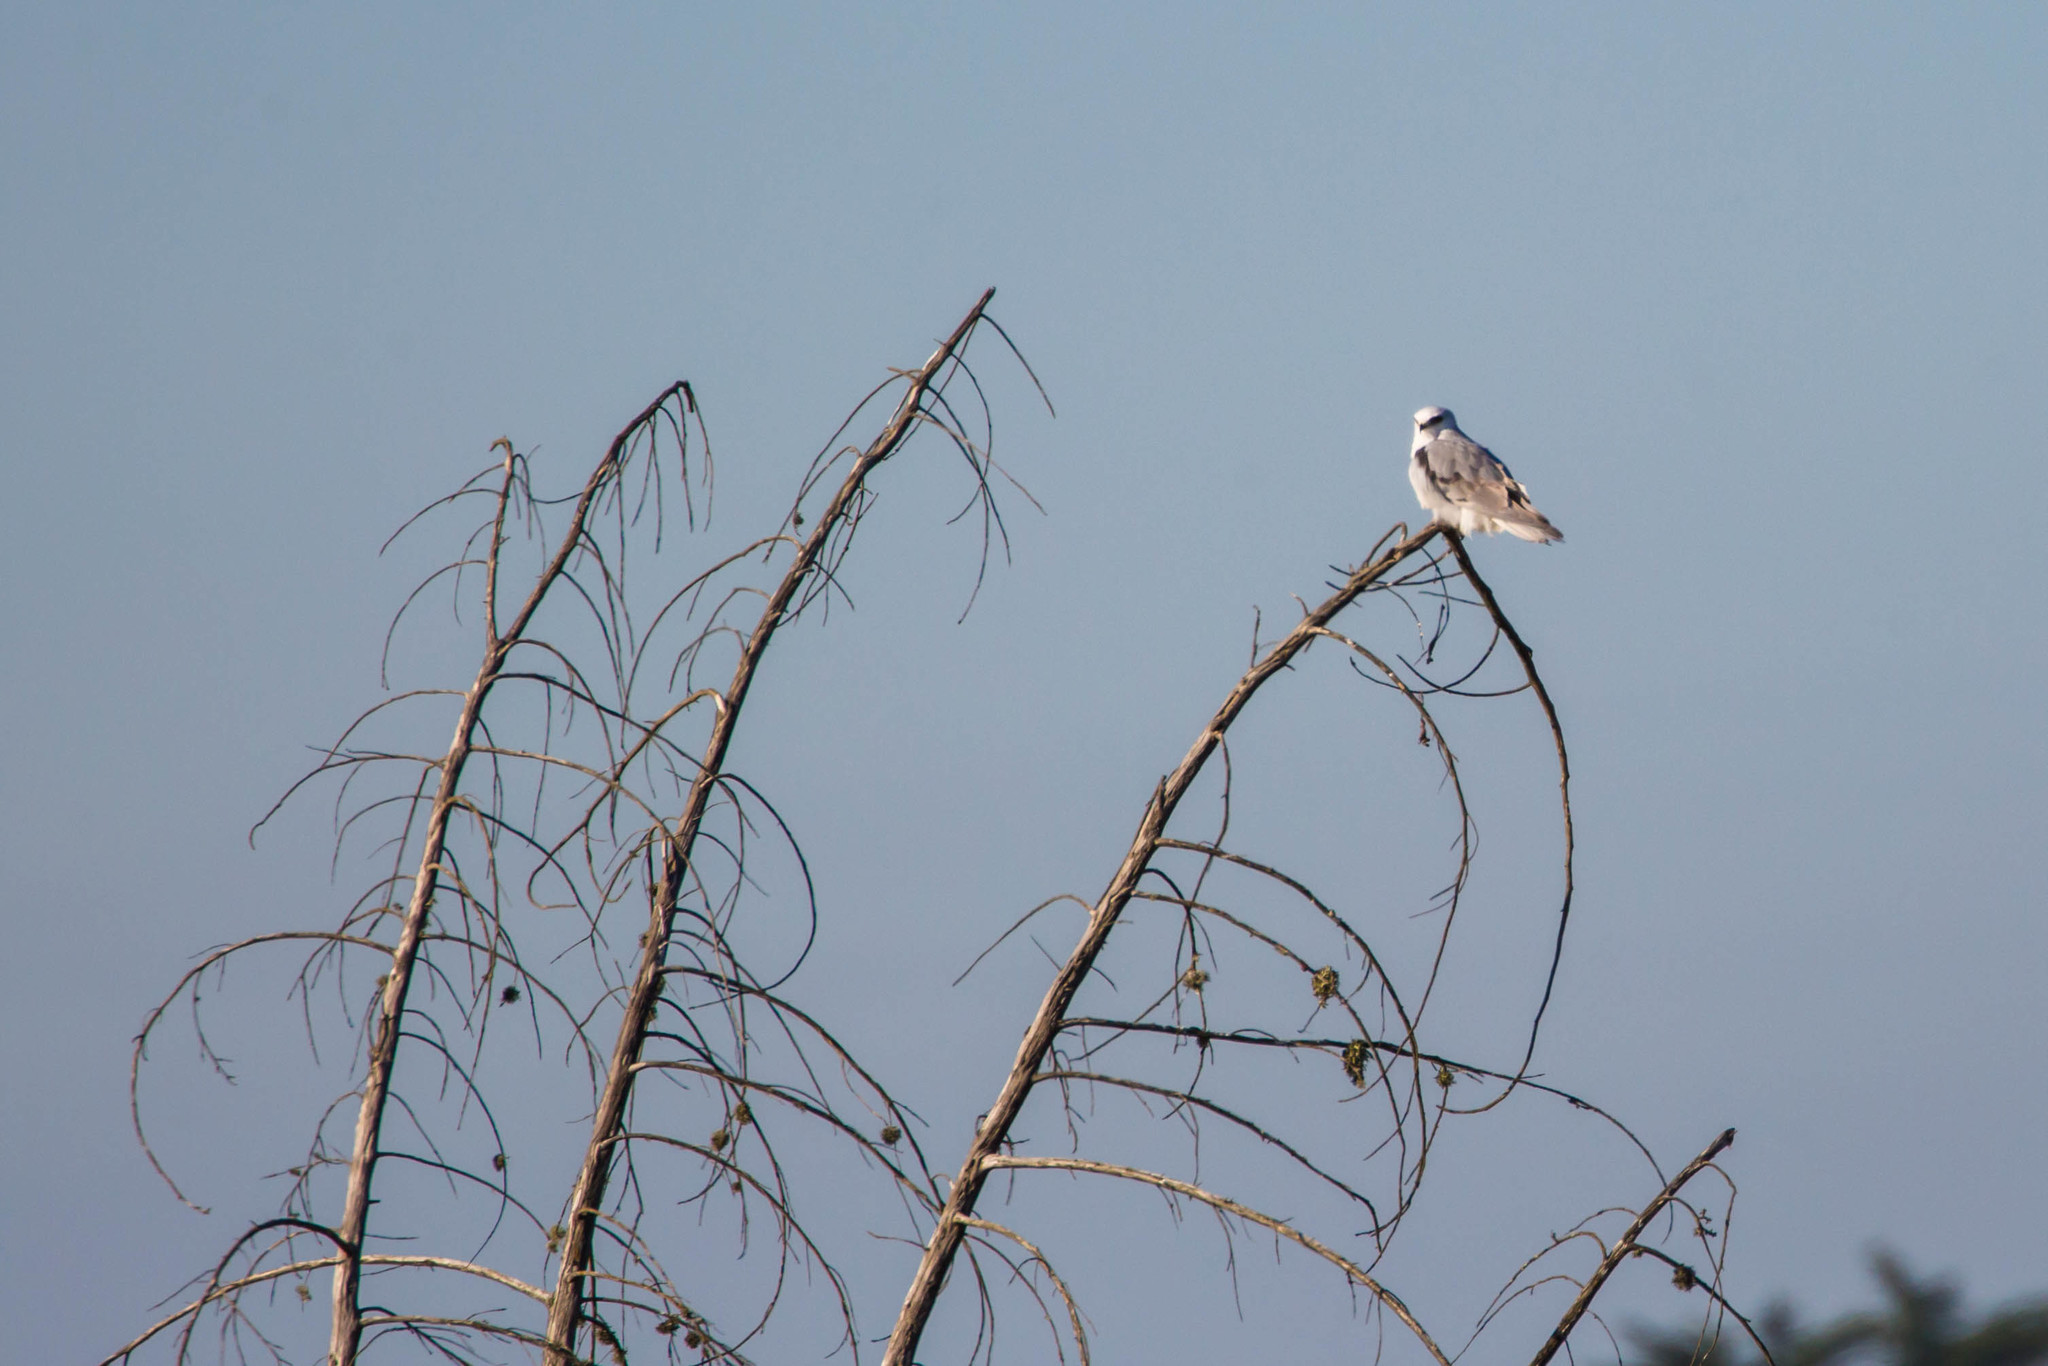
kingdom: Animalia
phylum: Chordata
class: Aves
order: Accipitriformes
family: Accipitridae
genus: Elanus
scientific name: Elanus leucurus
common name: White-tailed kite
